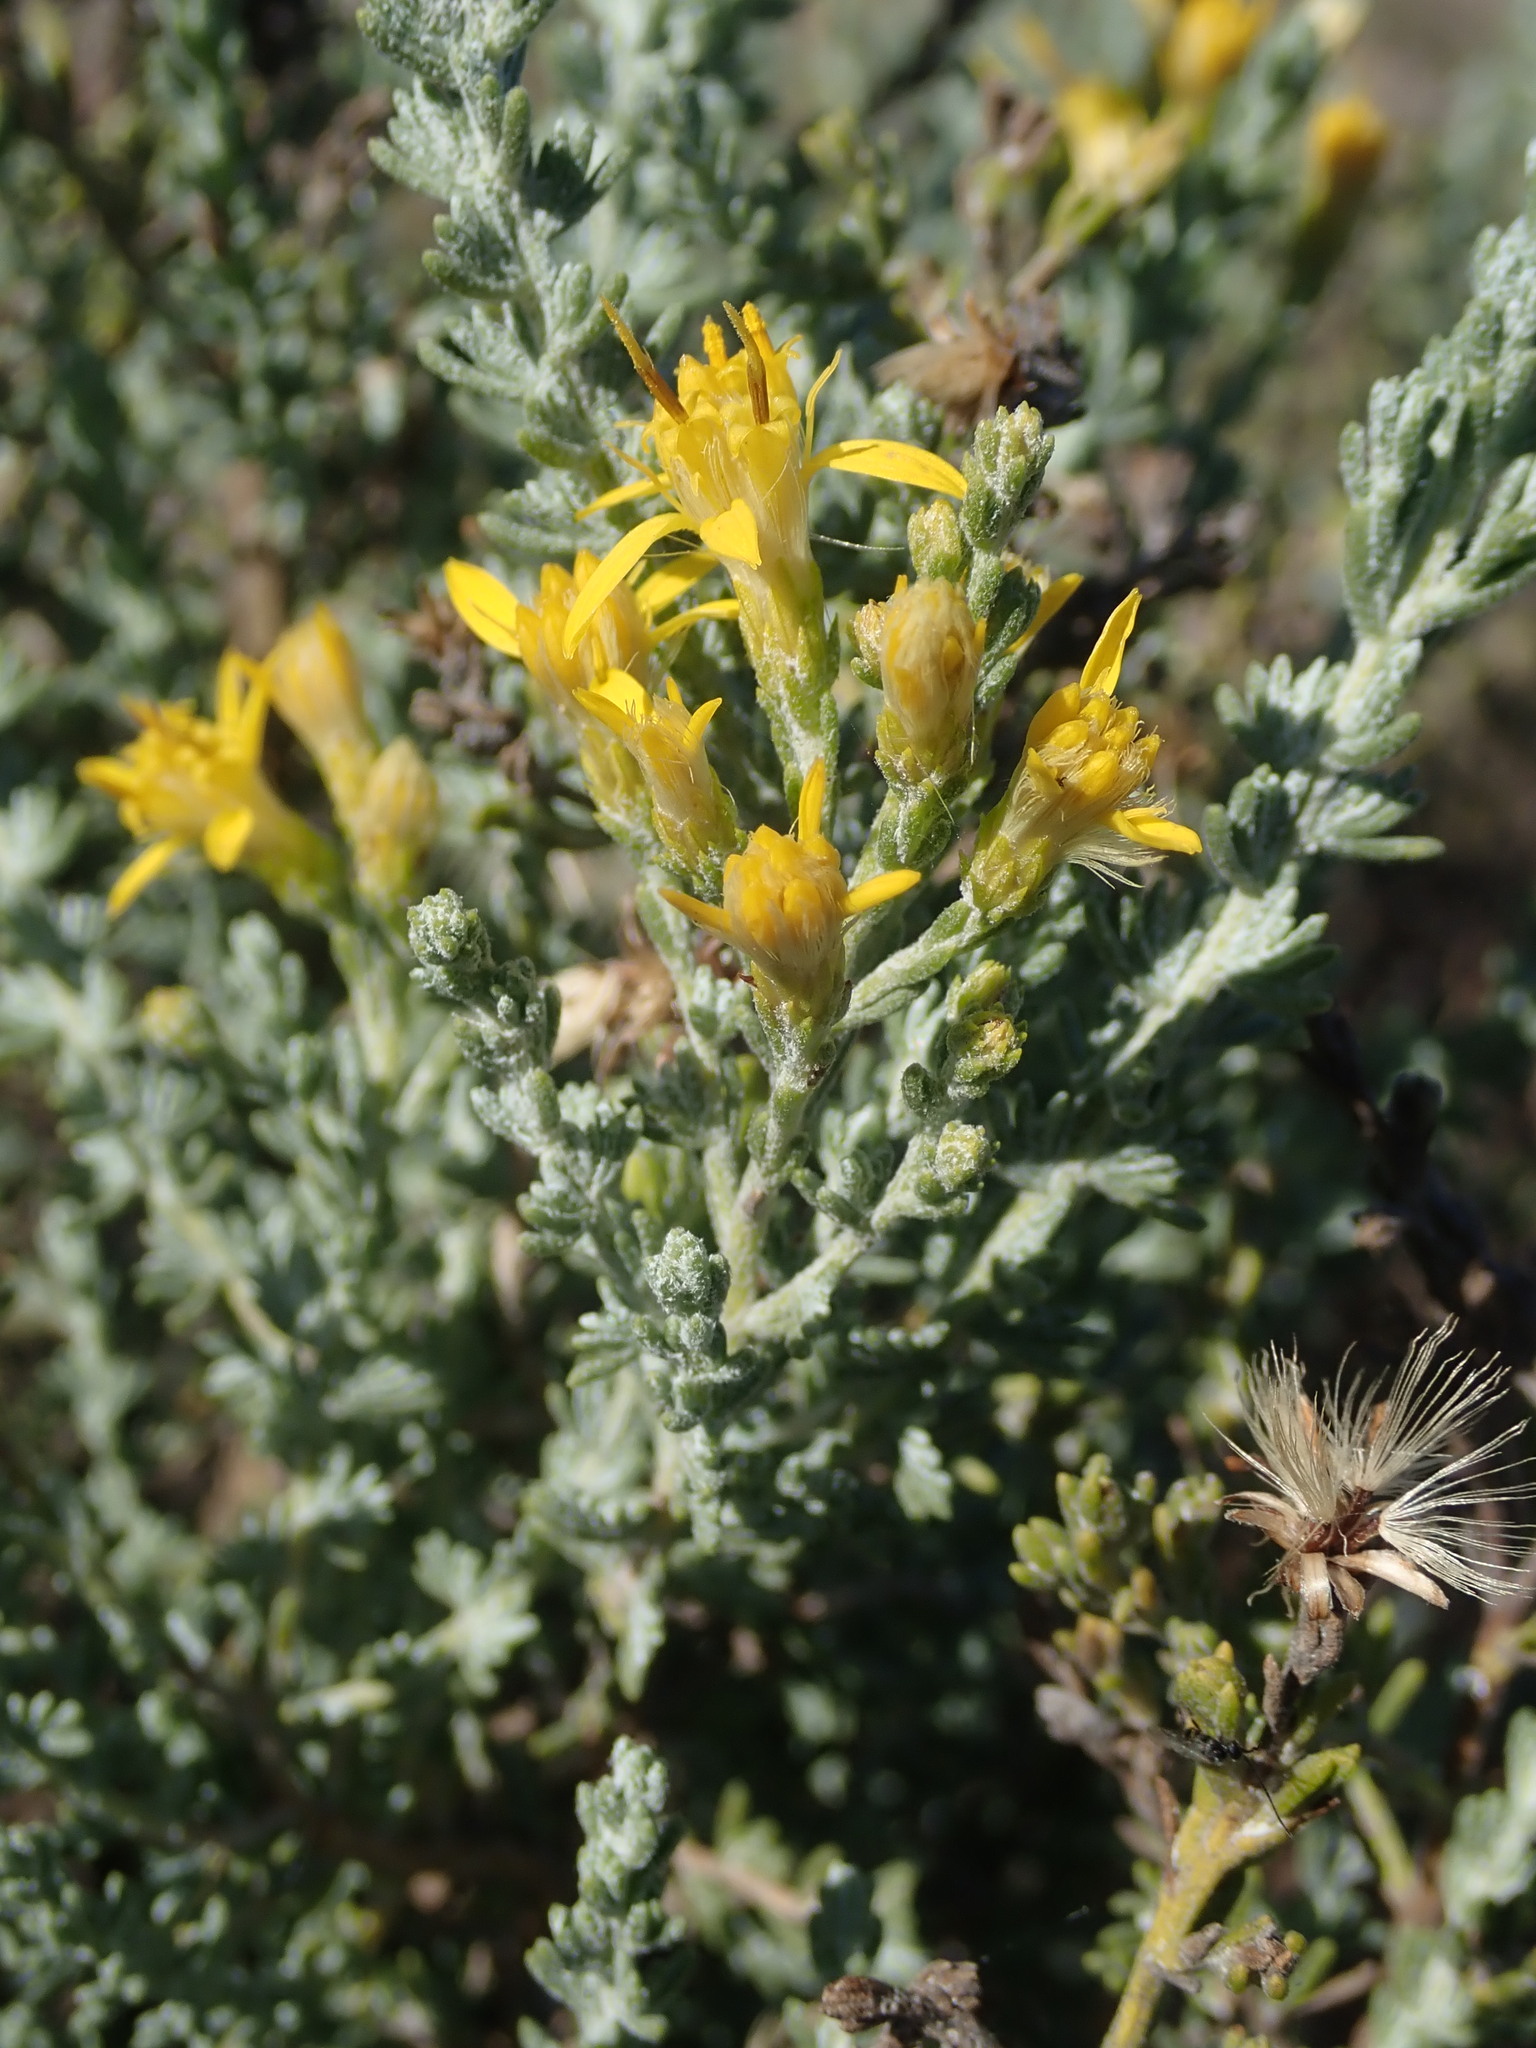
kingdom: Plantae
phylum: Tracheophyta
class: Magnoliopsida
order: Asterales
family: Asteraceae
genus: Ericameria
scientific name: Ericameria ericoides
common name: California goldenbush
